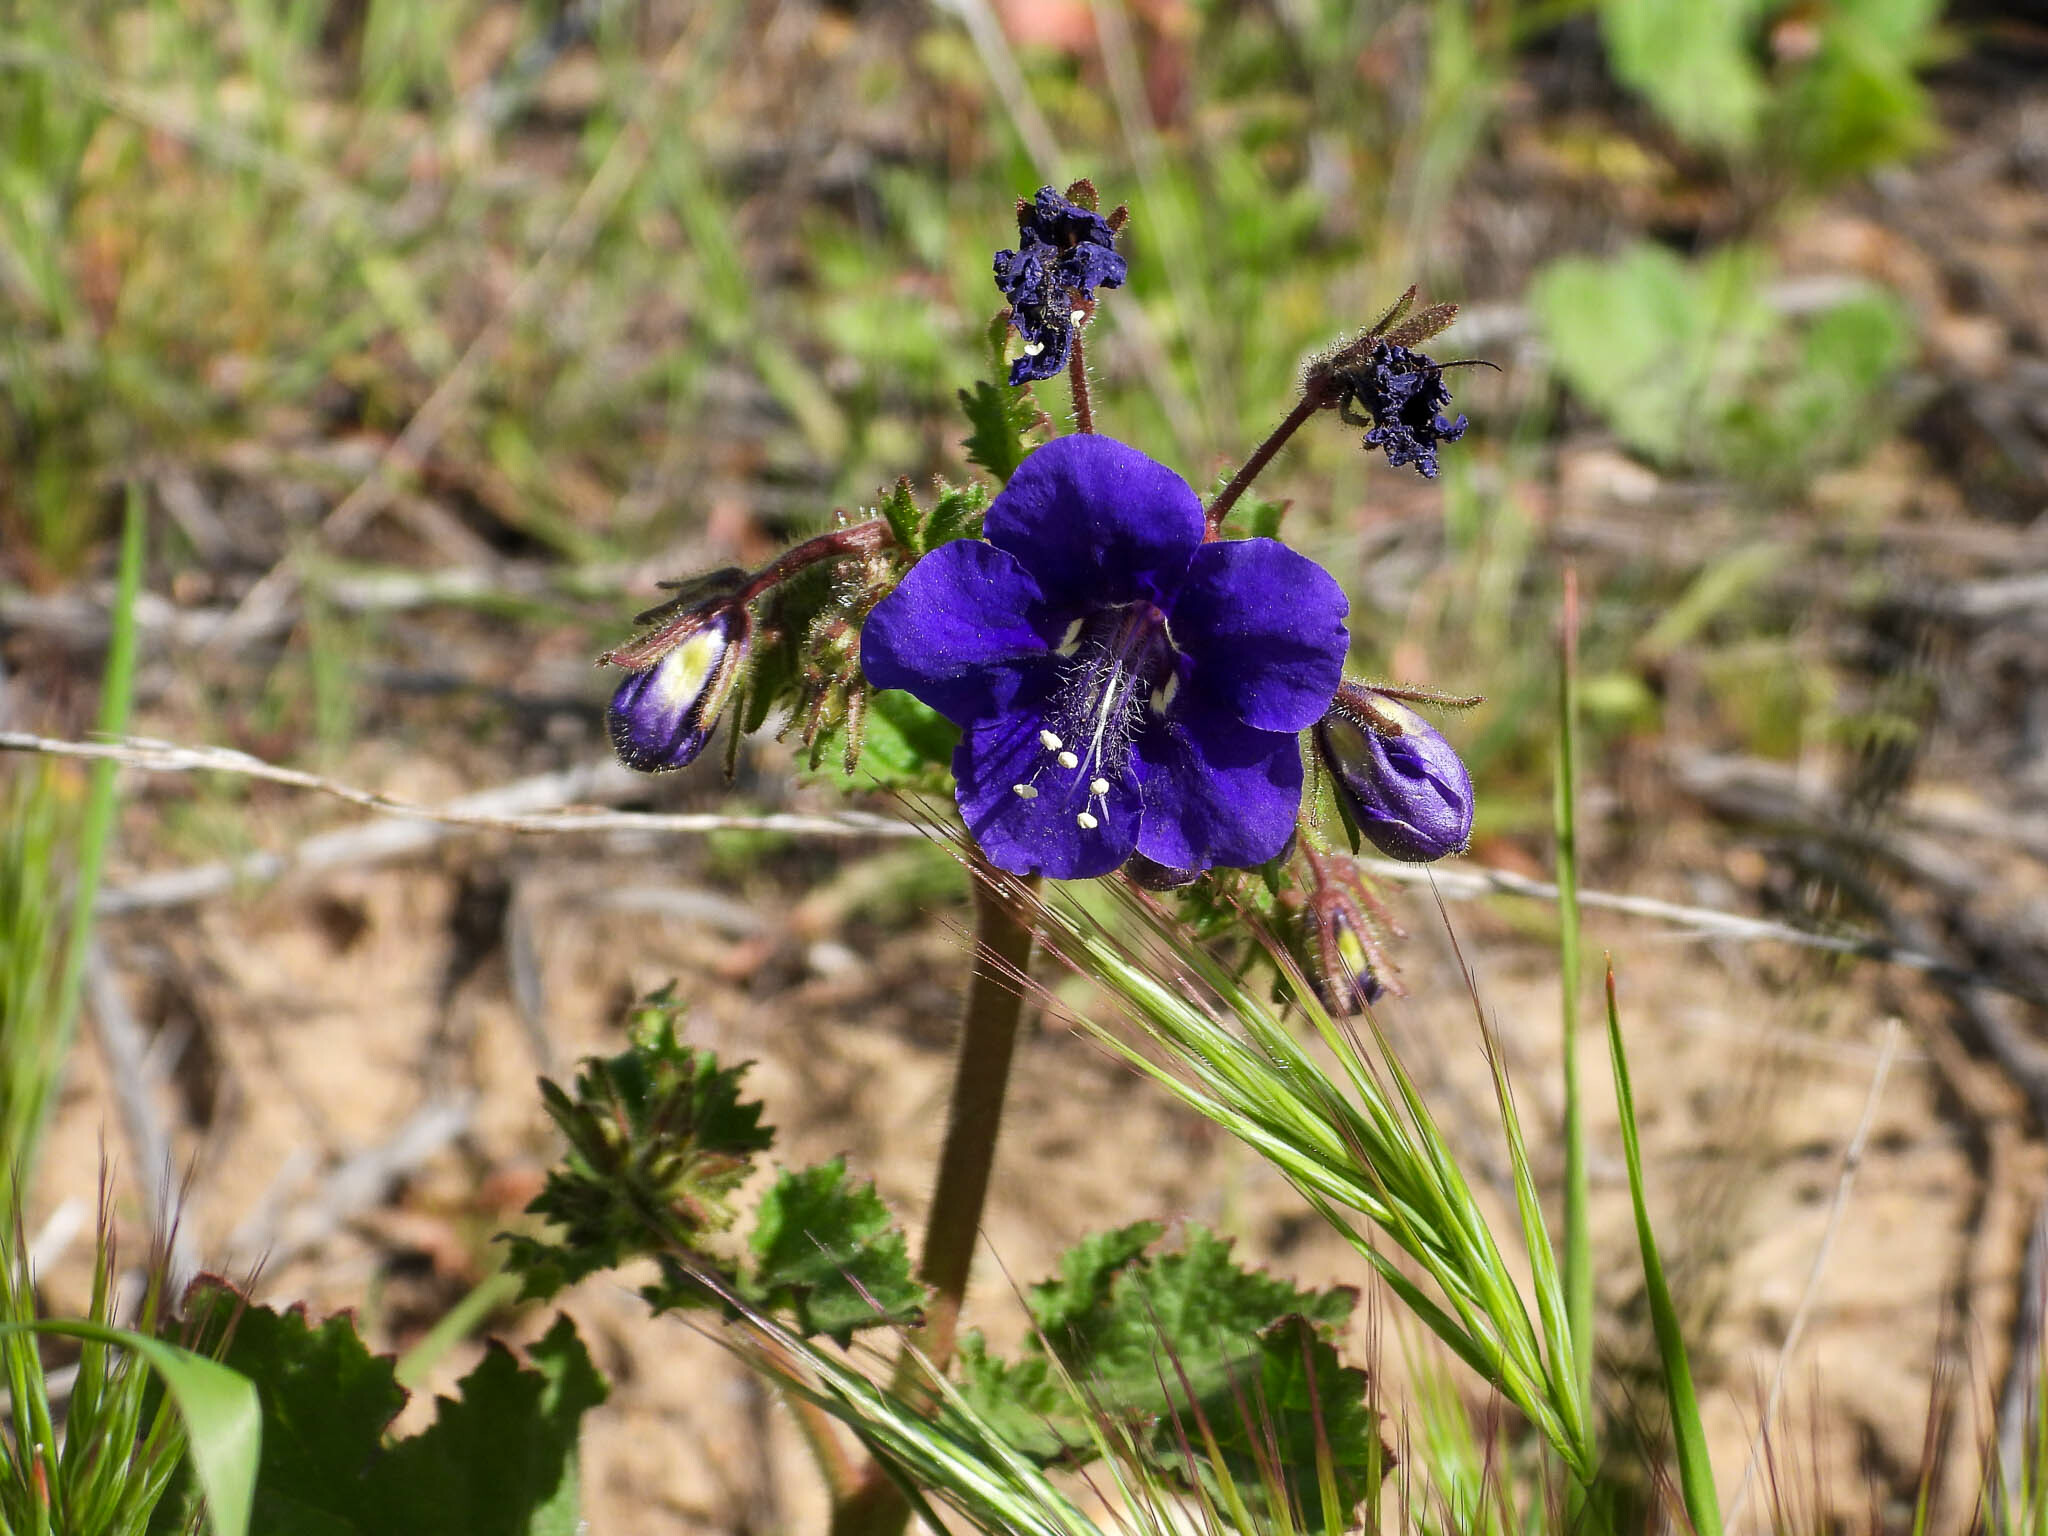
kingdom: Plantae
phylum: Tracheophyta
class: Magnoliopsida
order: Boraginales
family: Hydrophyllaceae
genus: Phacelia
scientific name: Phacelia parryi
